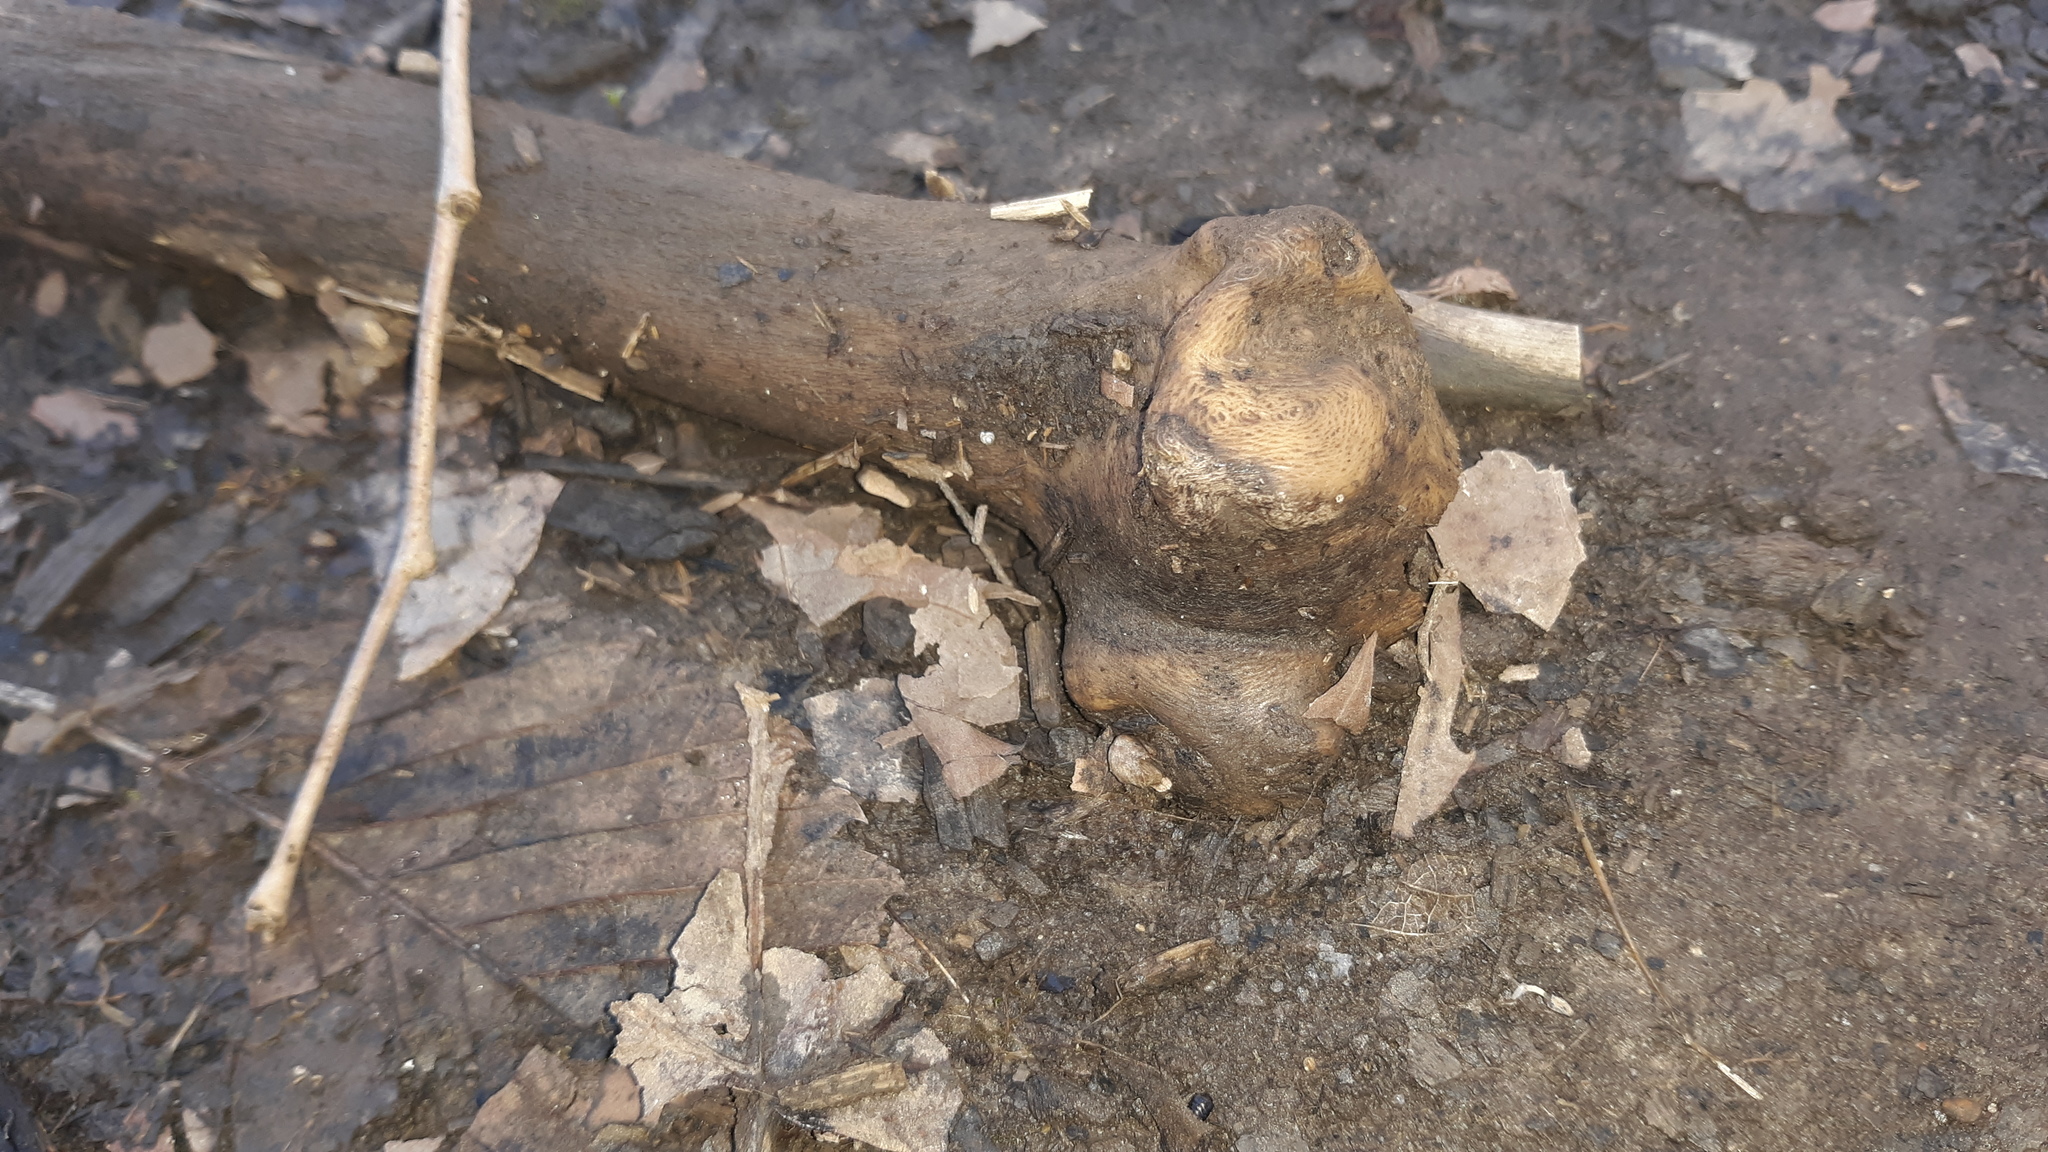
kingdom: Animalia
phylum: Chordata
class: Mammalia
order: Artiodactyla
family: Cervidae
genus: Odocoileus
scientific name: Odocoileus virginianus
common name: White-tailed deer
